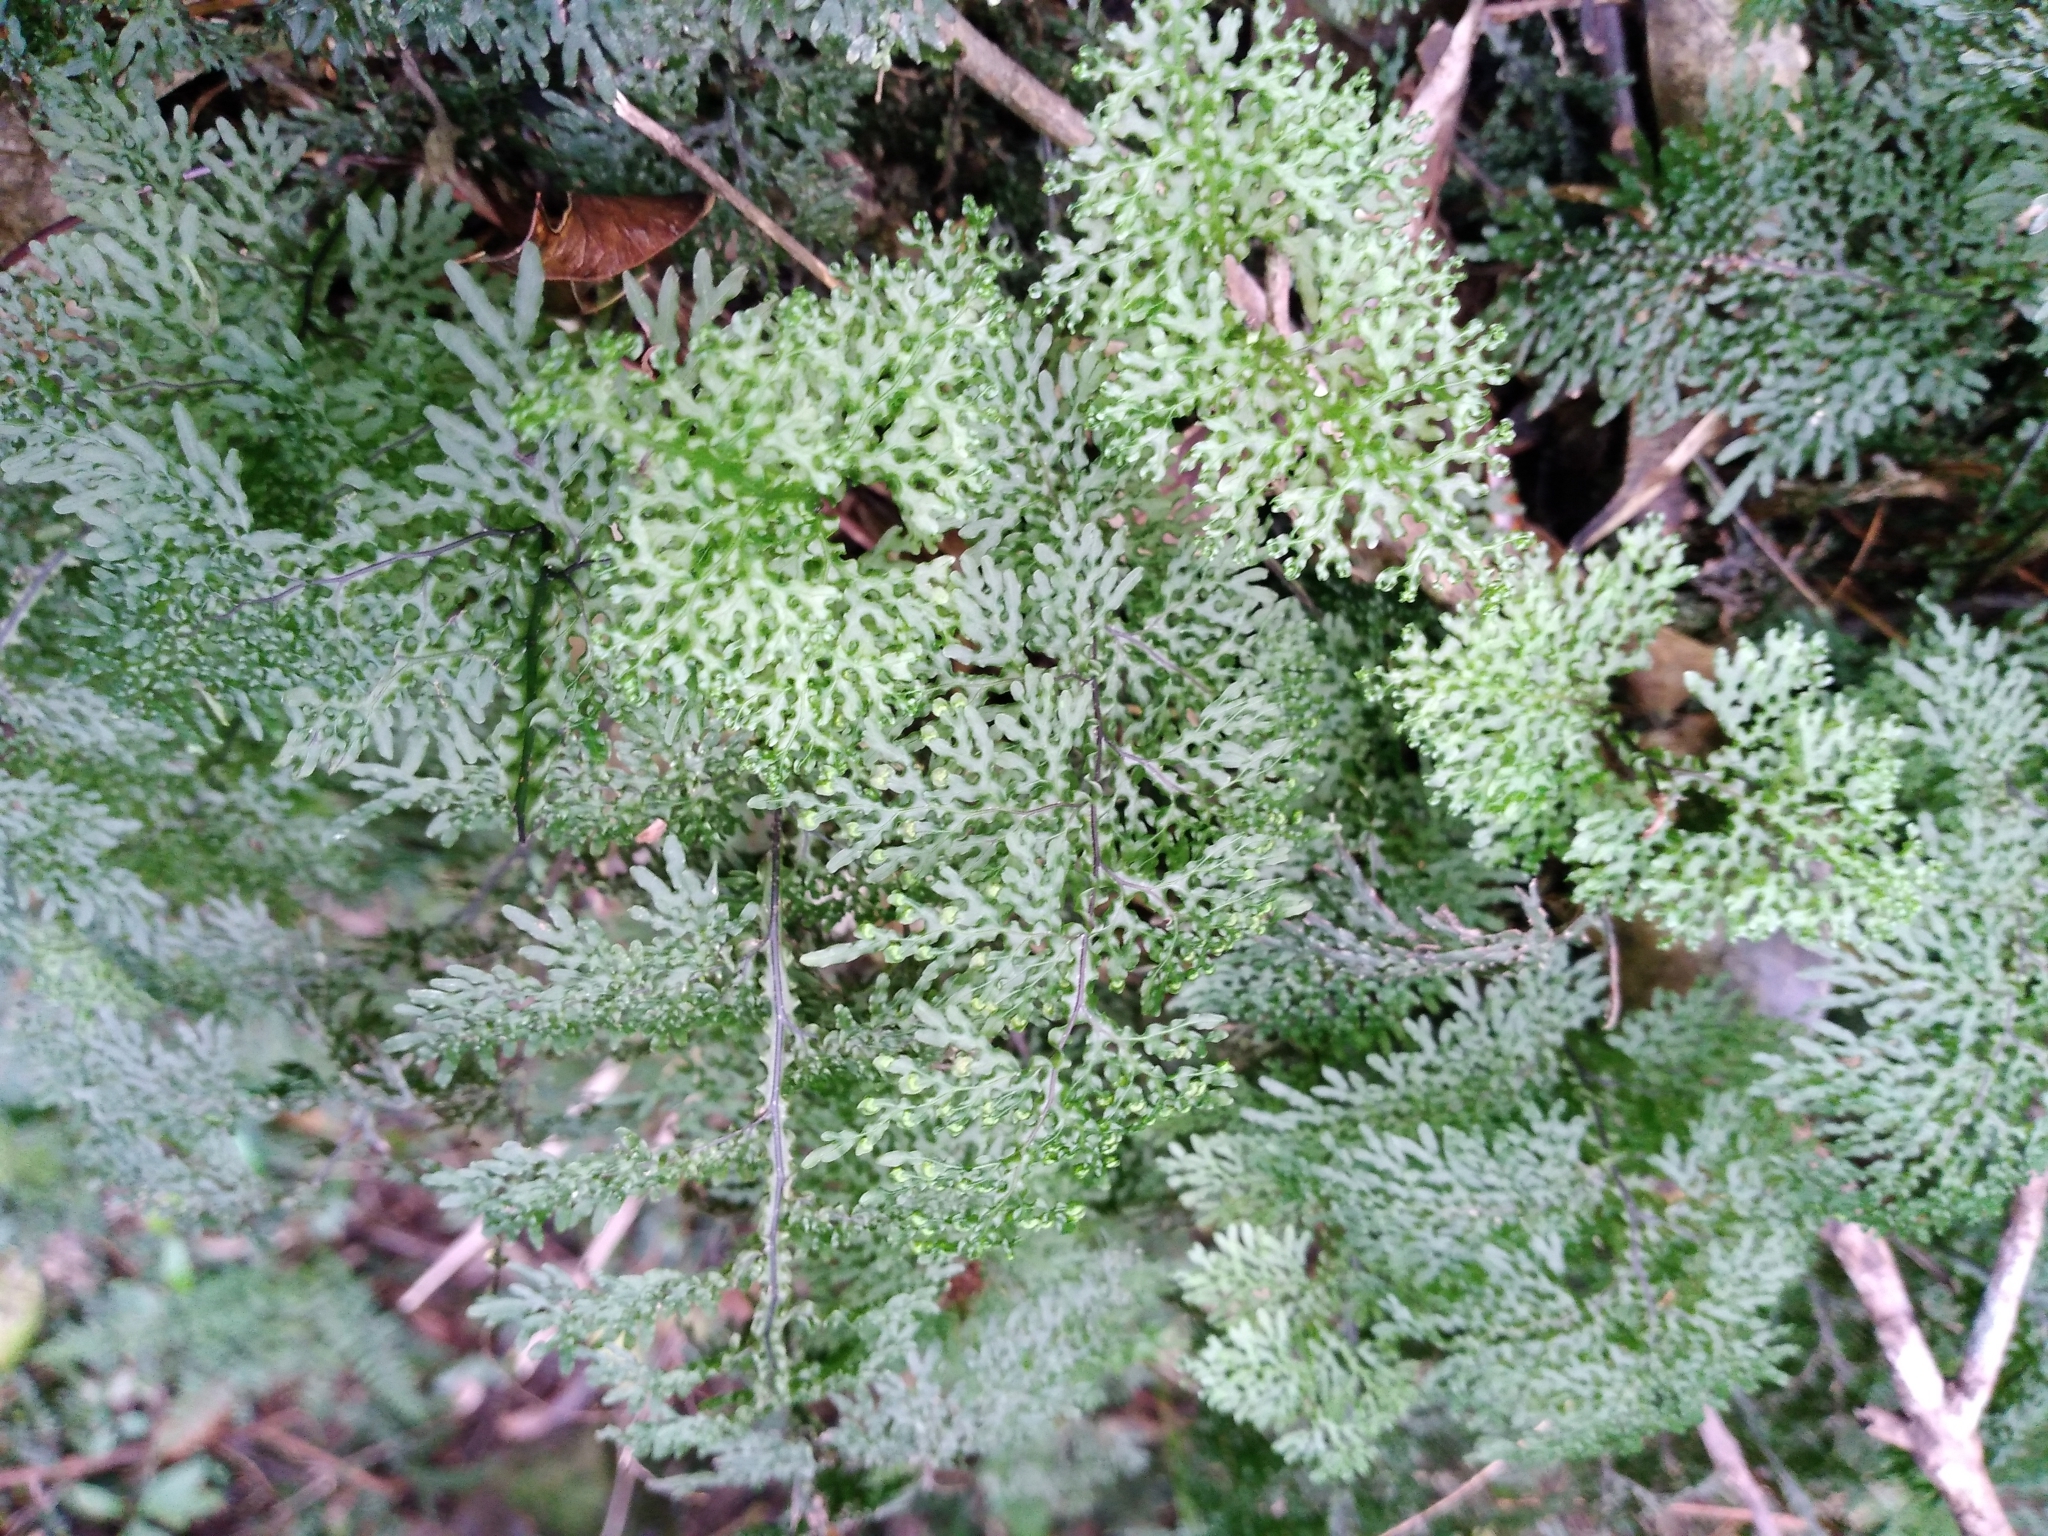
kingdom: Plantae
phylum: Tracheophyta
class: Polypodiopsida
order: Hymenophyllales
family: Hymenophyllaceae
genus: Hymenophyllum
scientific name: Hymenophyllum flexuosum
